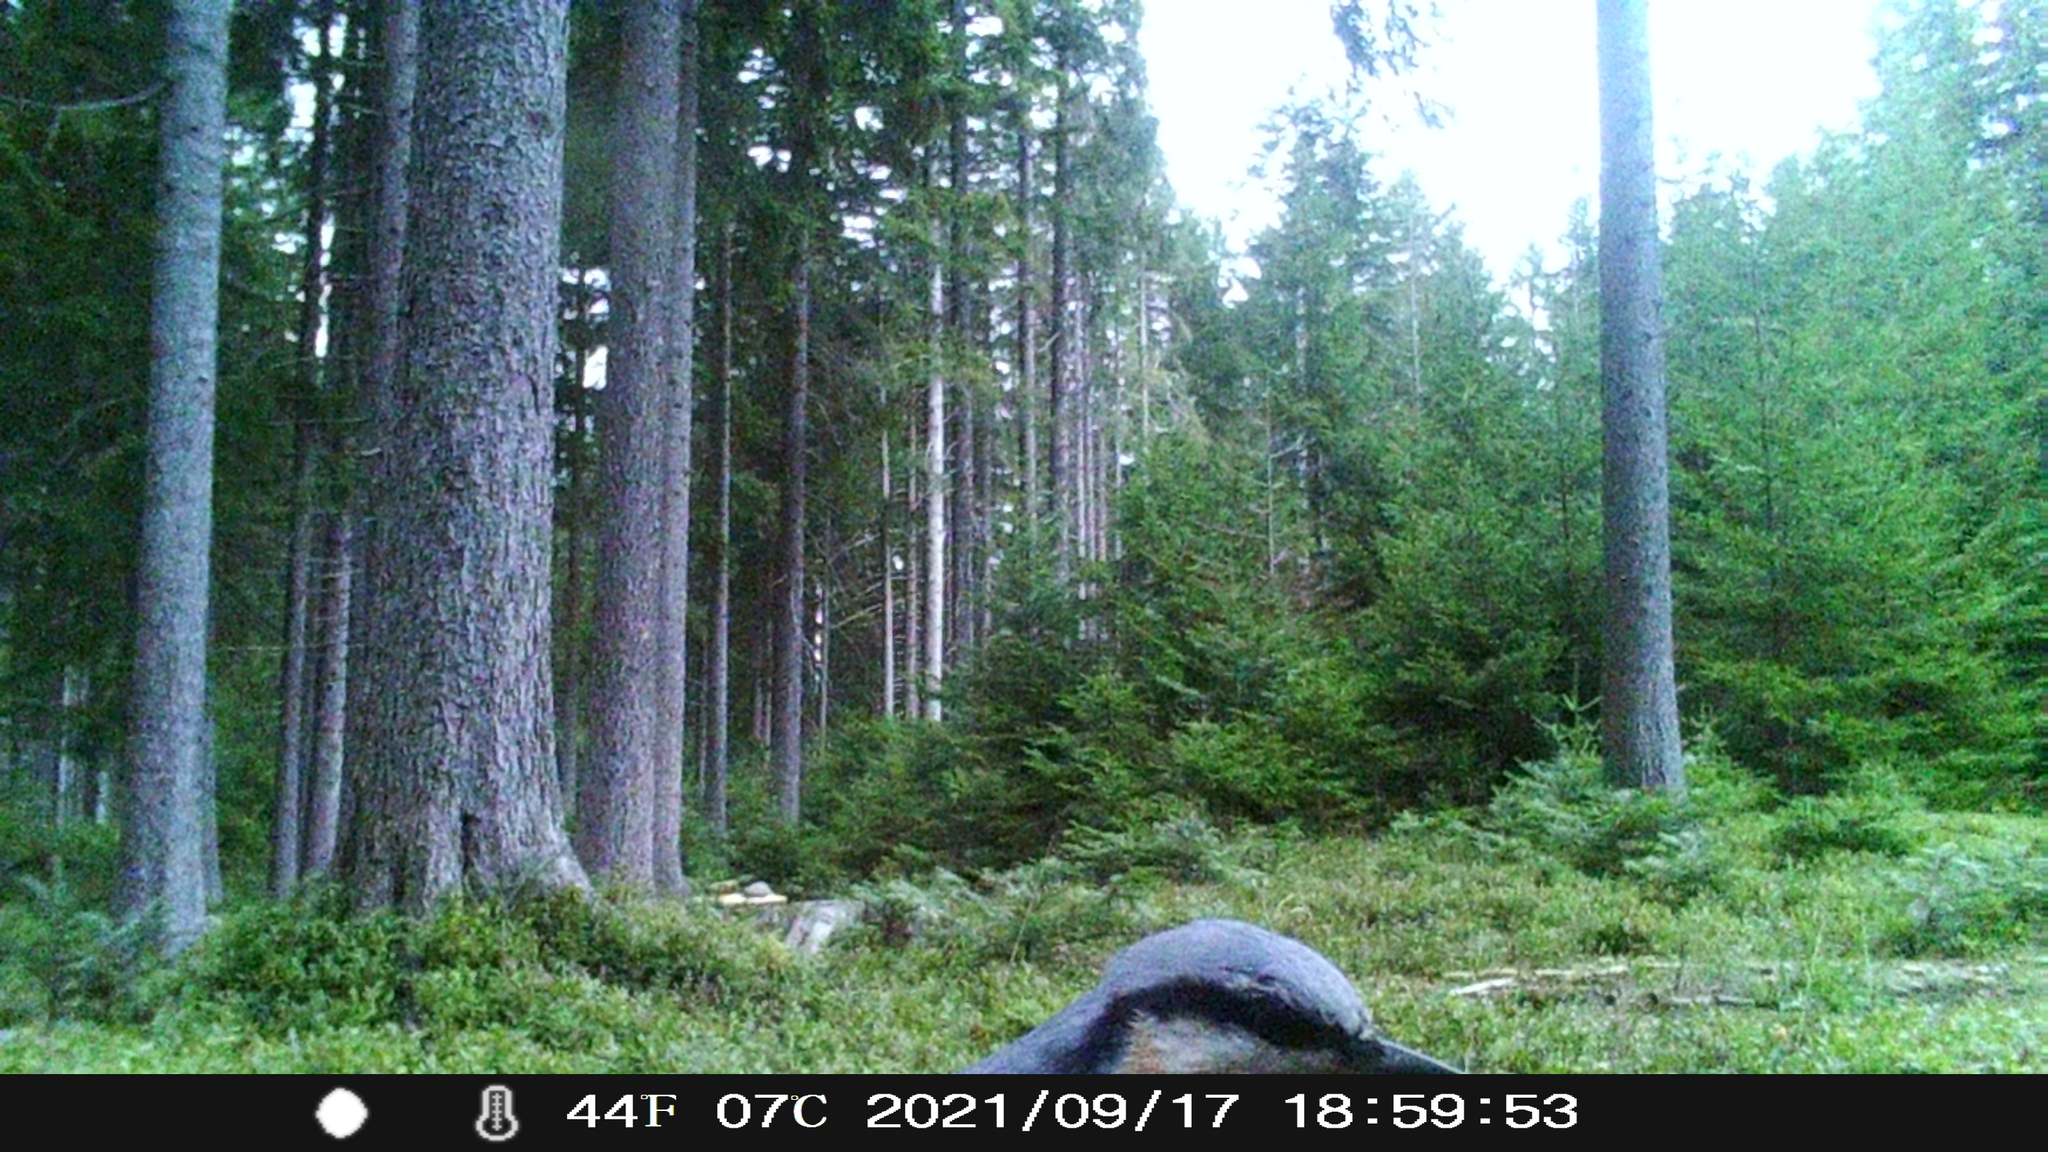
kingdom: Animalia
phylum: Chordata
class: Aves
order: Passeriformes
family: Sittidae
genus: Sitta
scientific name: Sitta europaea
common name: Eurasian nuthatch
